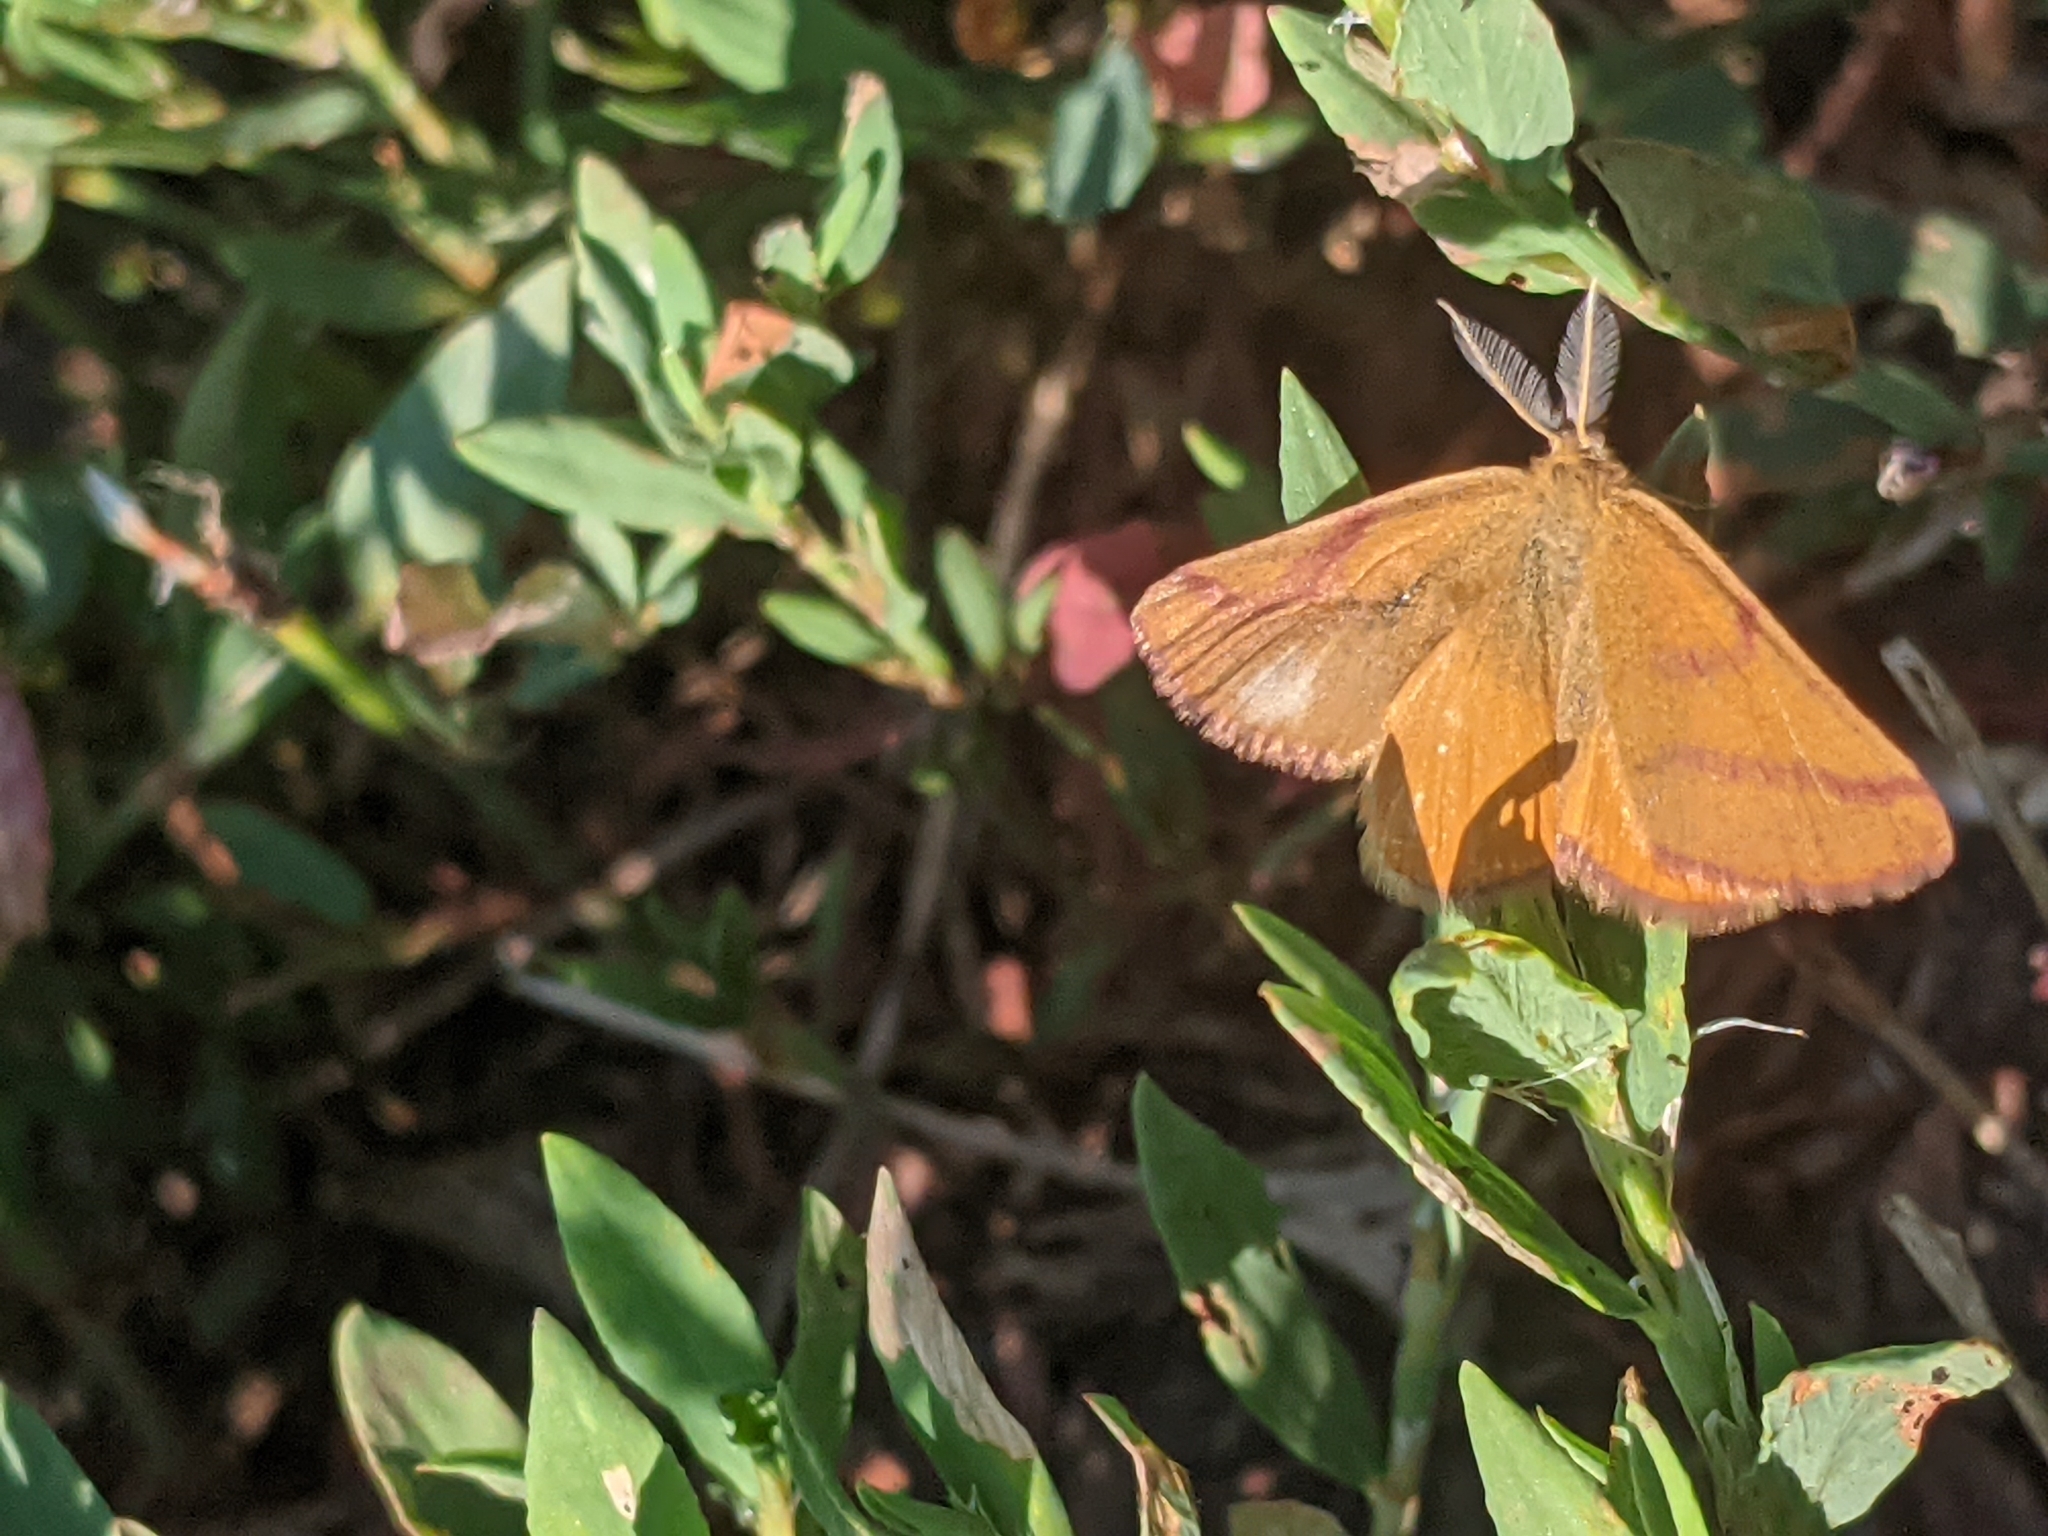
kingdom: Animalia
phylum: Arthropoda
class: Insecta
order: Lepidoptera
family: Geometridae
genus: Lythria
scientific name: Lythria purpuraria
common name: Purple-barred yellow
